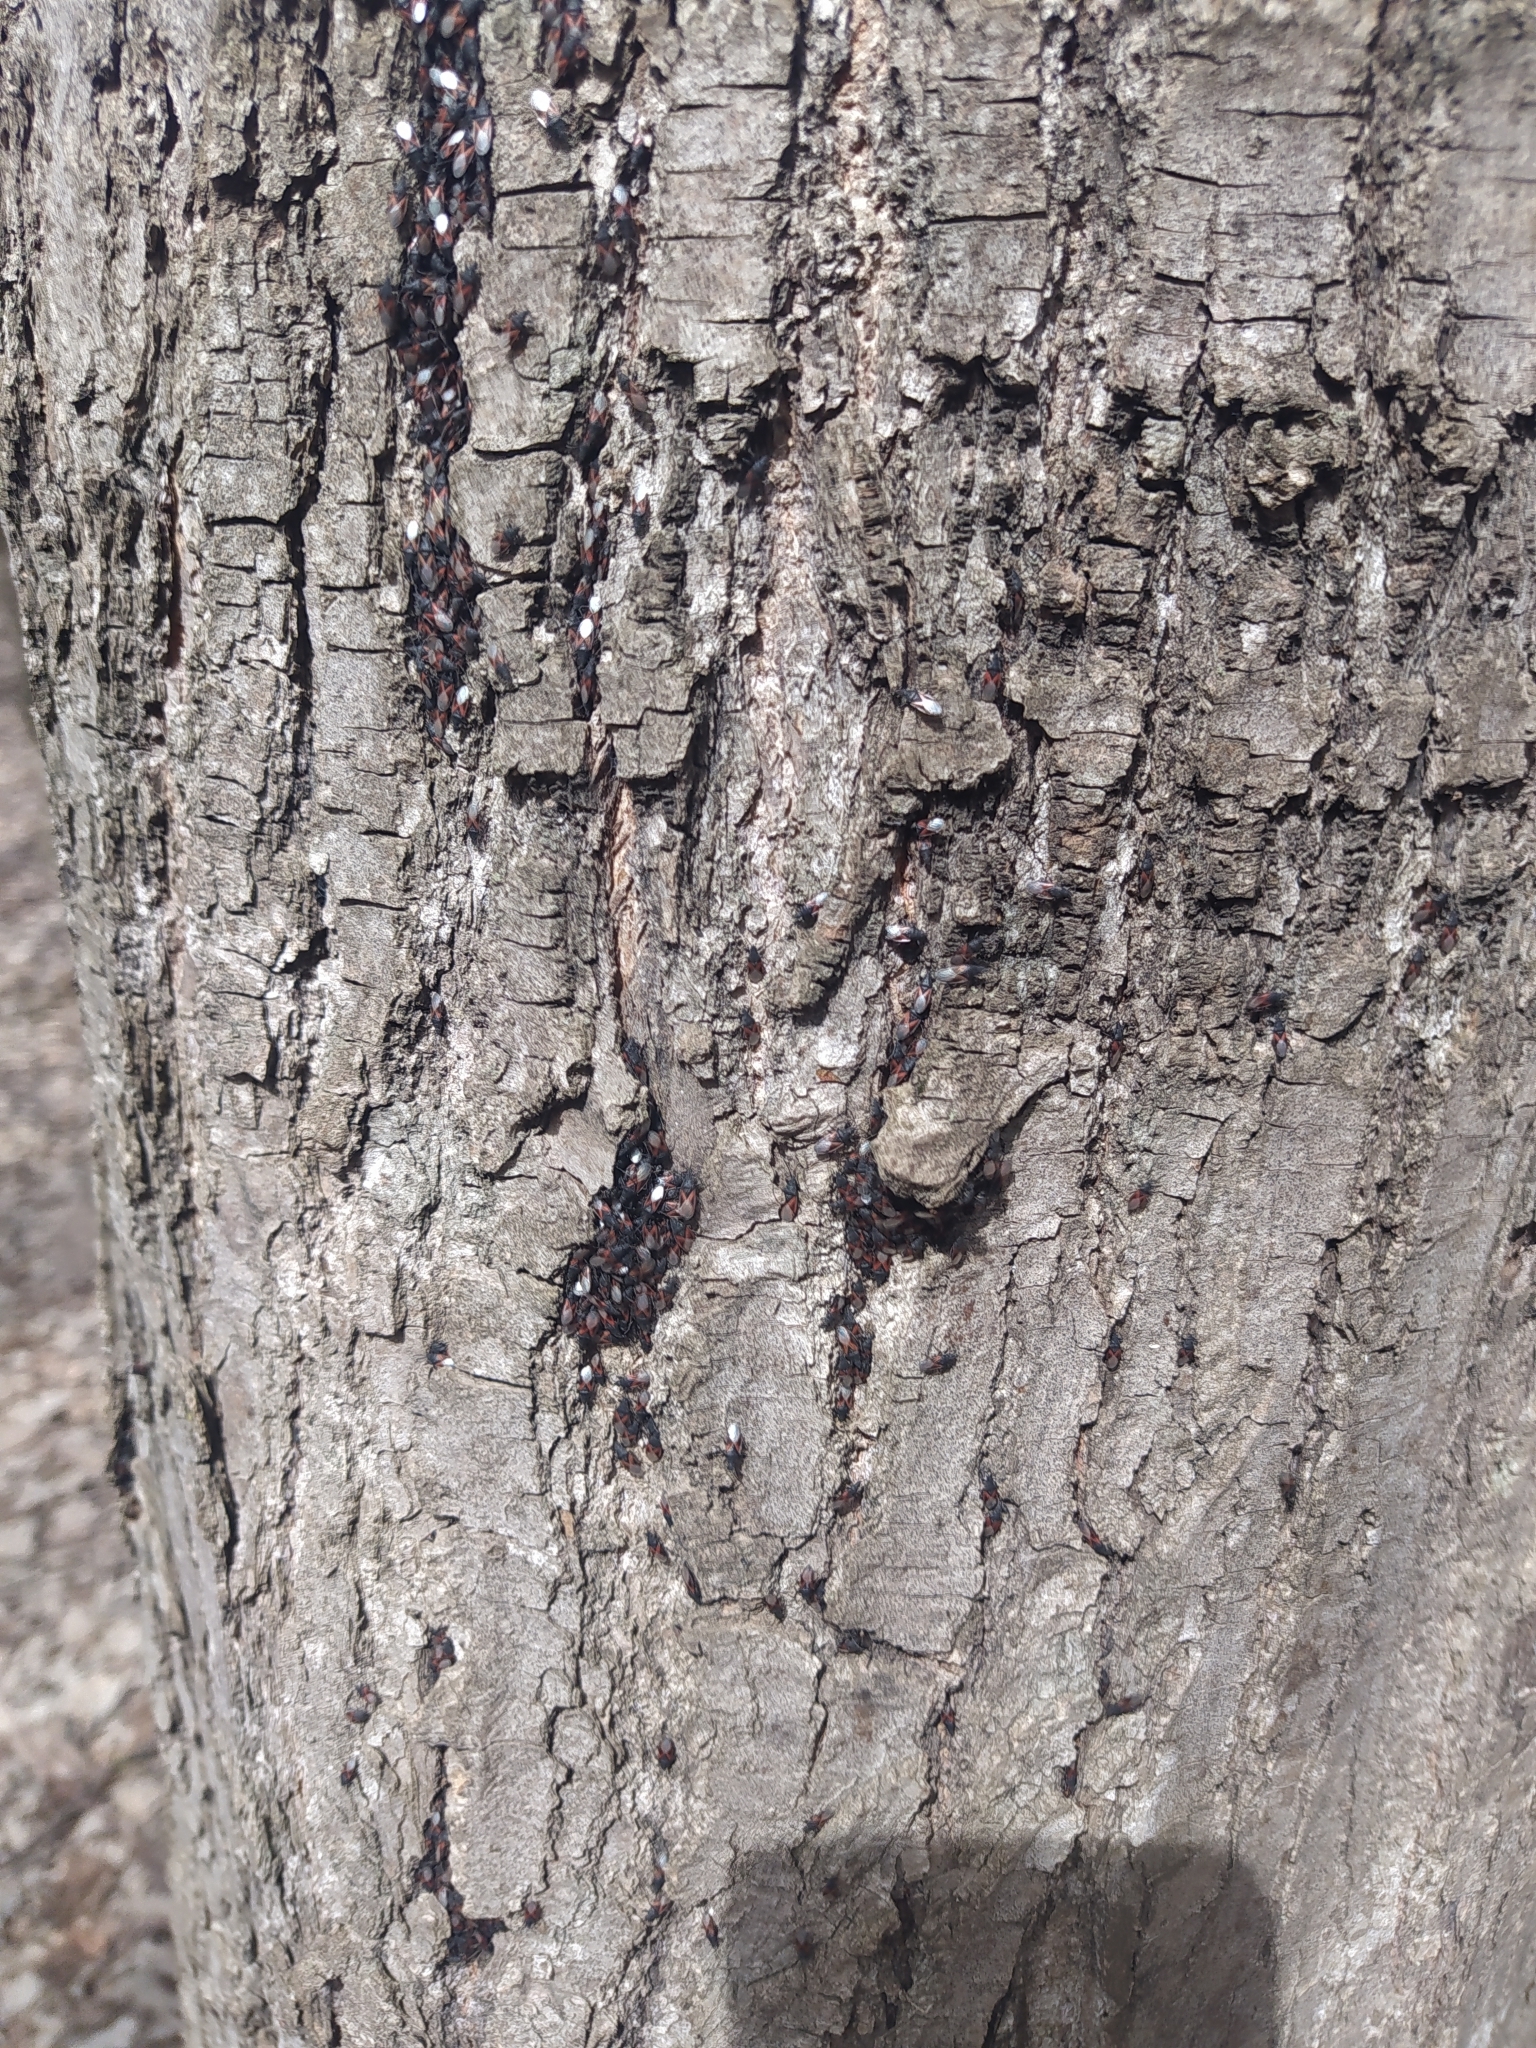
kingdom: Animalia
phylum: Arthropoda
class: Insecta
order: Hemiptera
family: Oxycarenidae
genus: Oxycarenus
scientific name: Oxycarenus lavaterae
